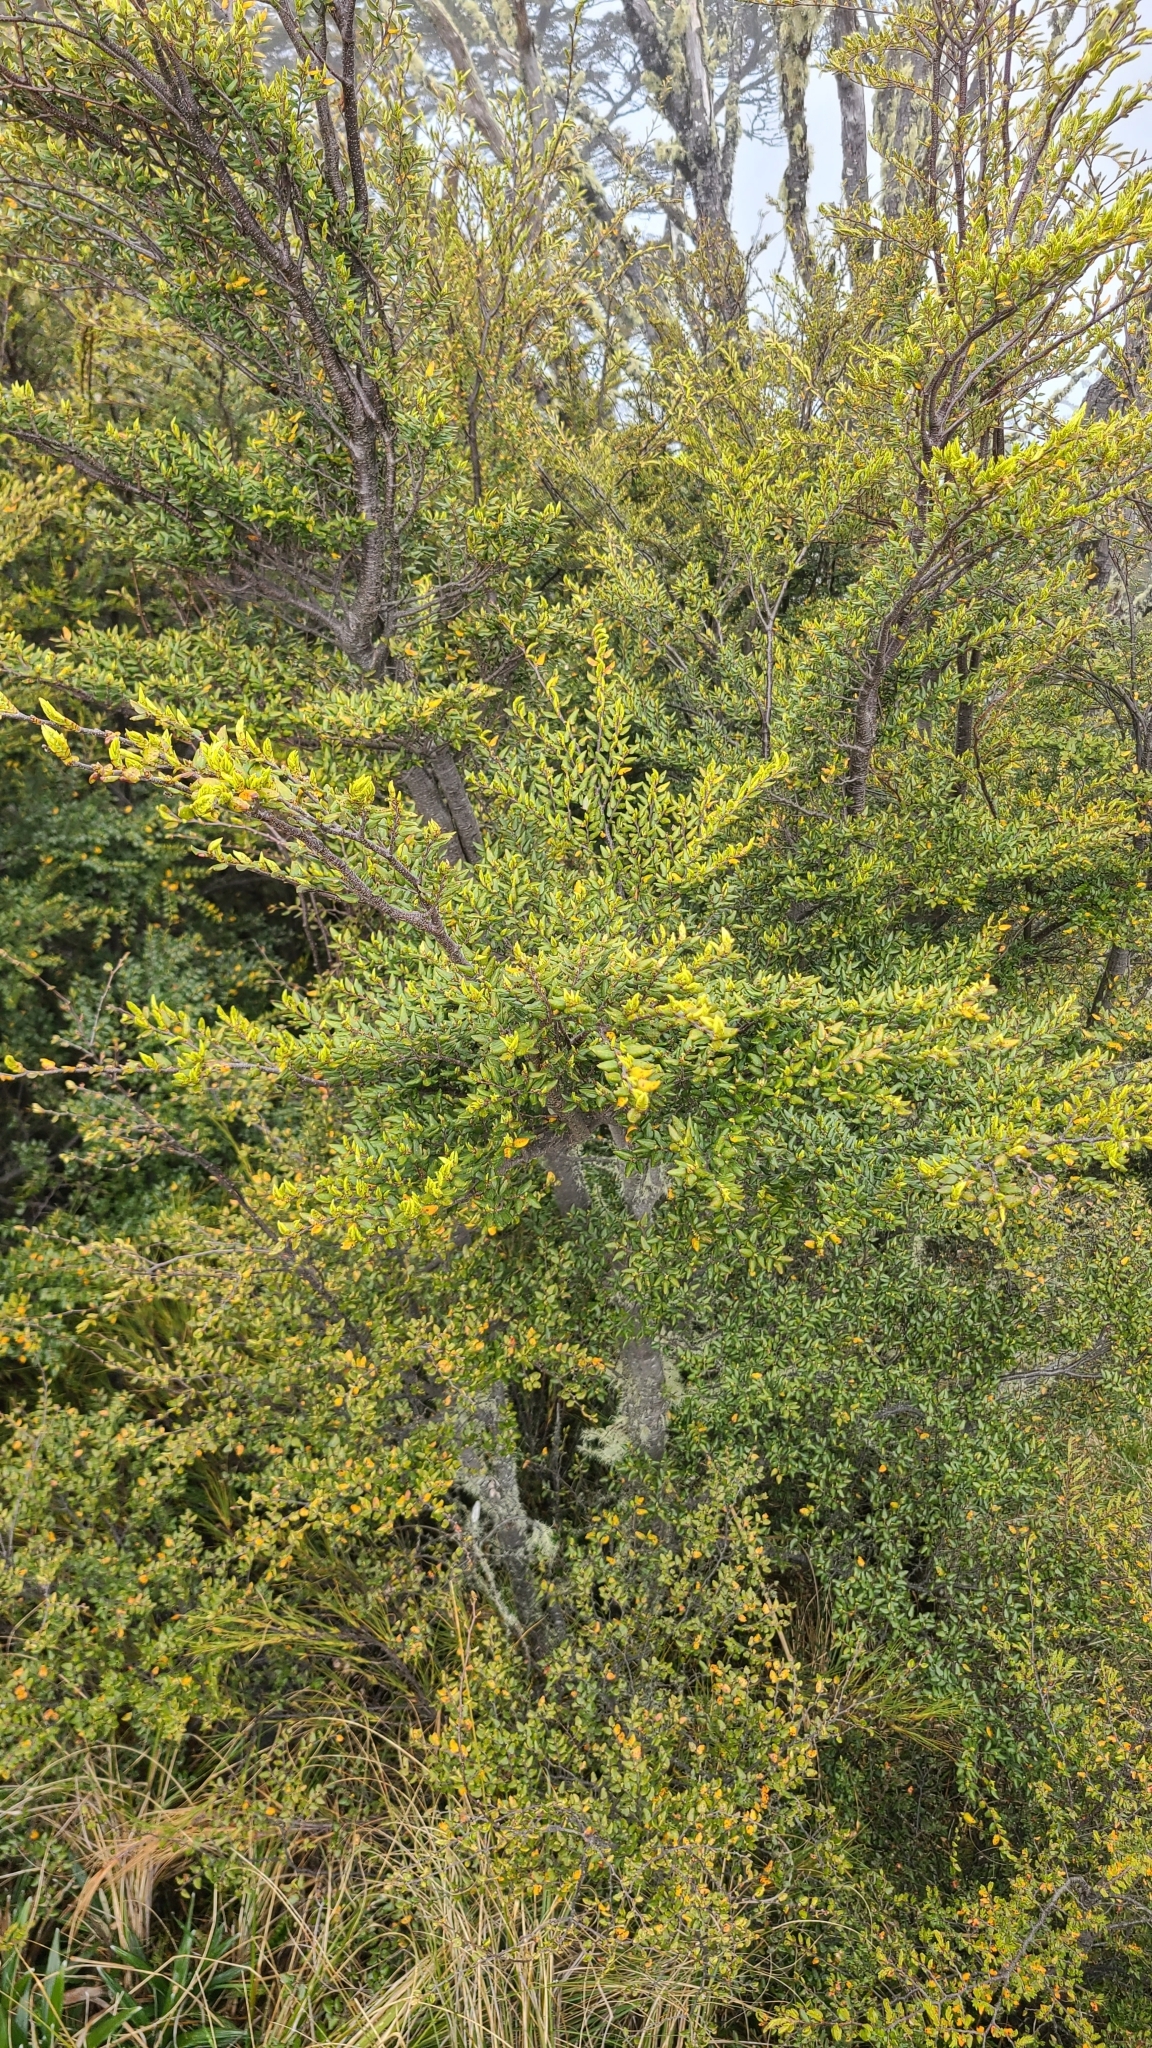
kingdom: Plantae
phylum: Tracheophyta
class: Magnoliopsida
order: Fagales
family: Nothofagaceae
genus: Nothofagus
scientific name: Nothofagus cliffortioides
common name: Mountain beech
